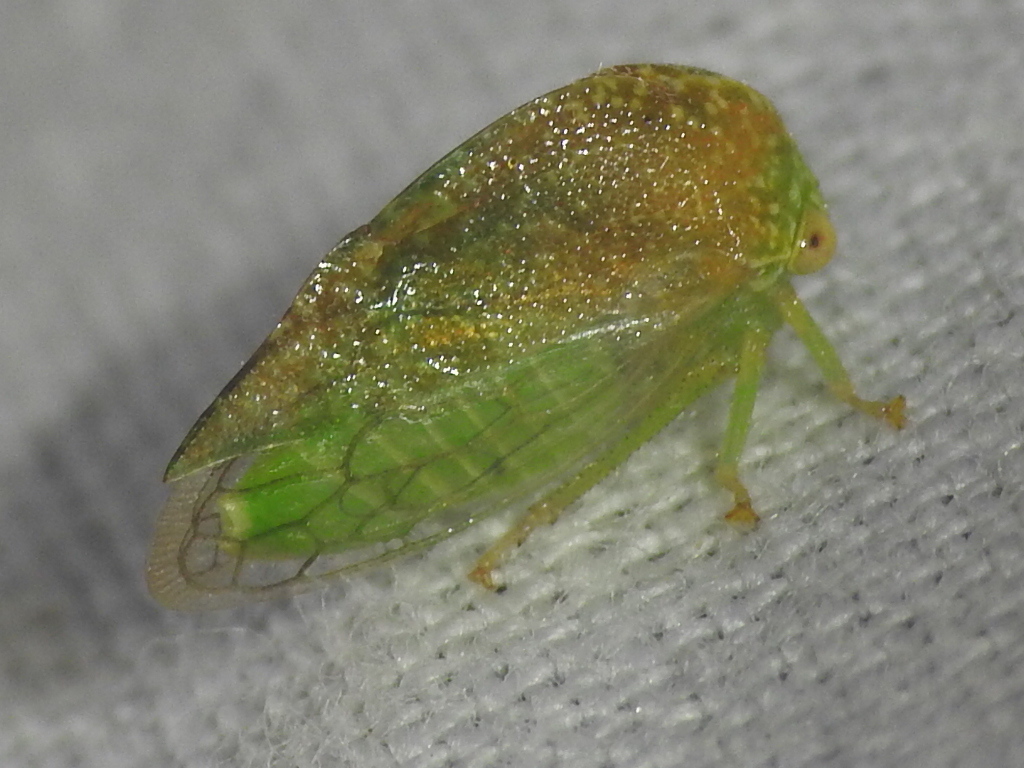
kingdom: Animalia
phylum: Arthropoda
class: Insecta
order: Hemiptera
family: Membracidae
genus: Cyrtolobus
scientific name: Cyrtolobus dixianus
